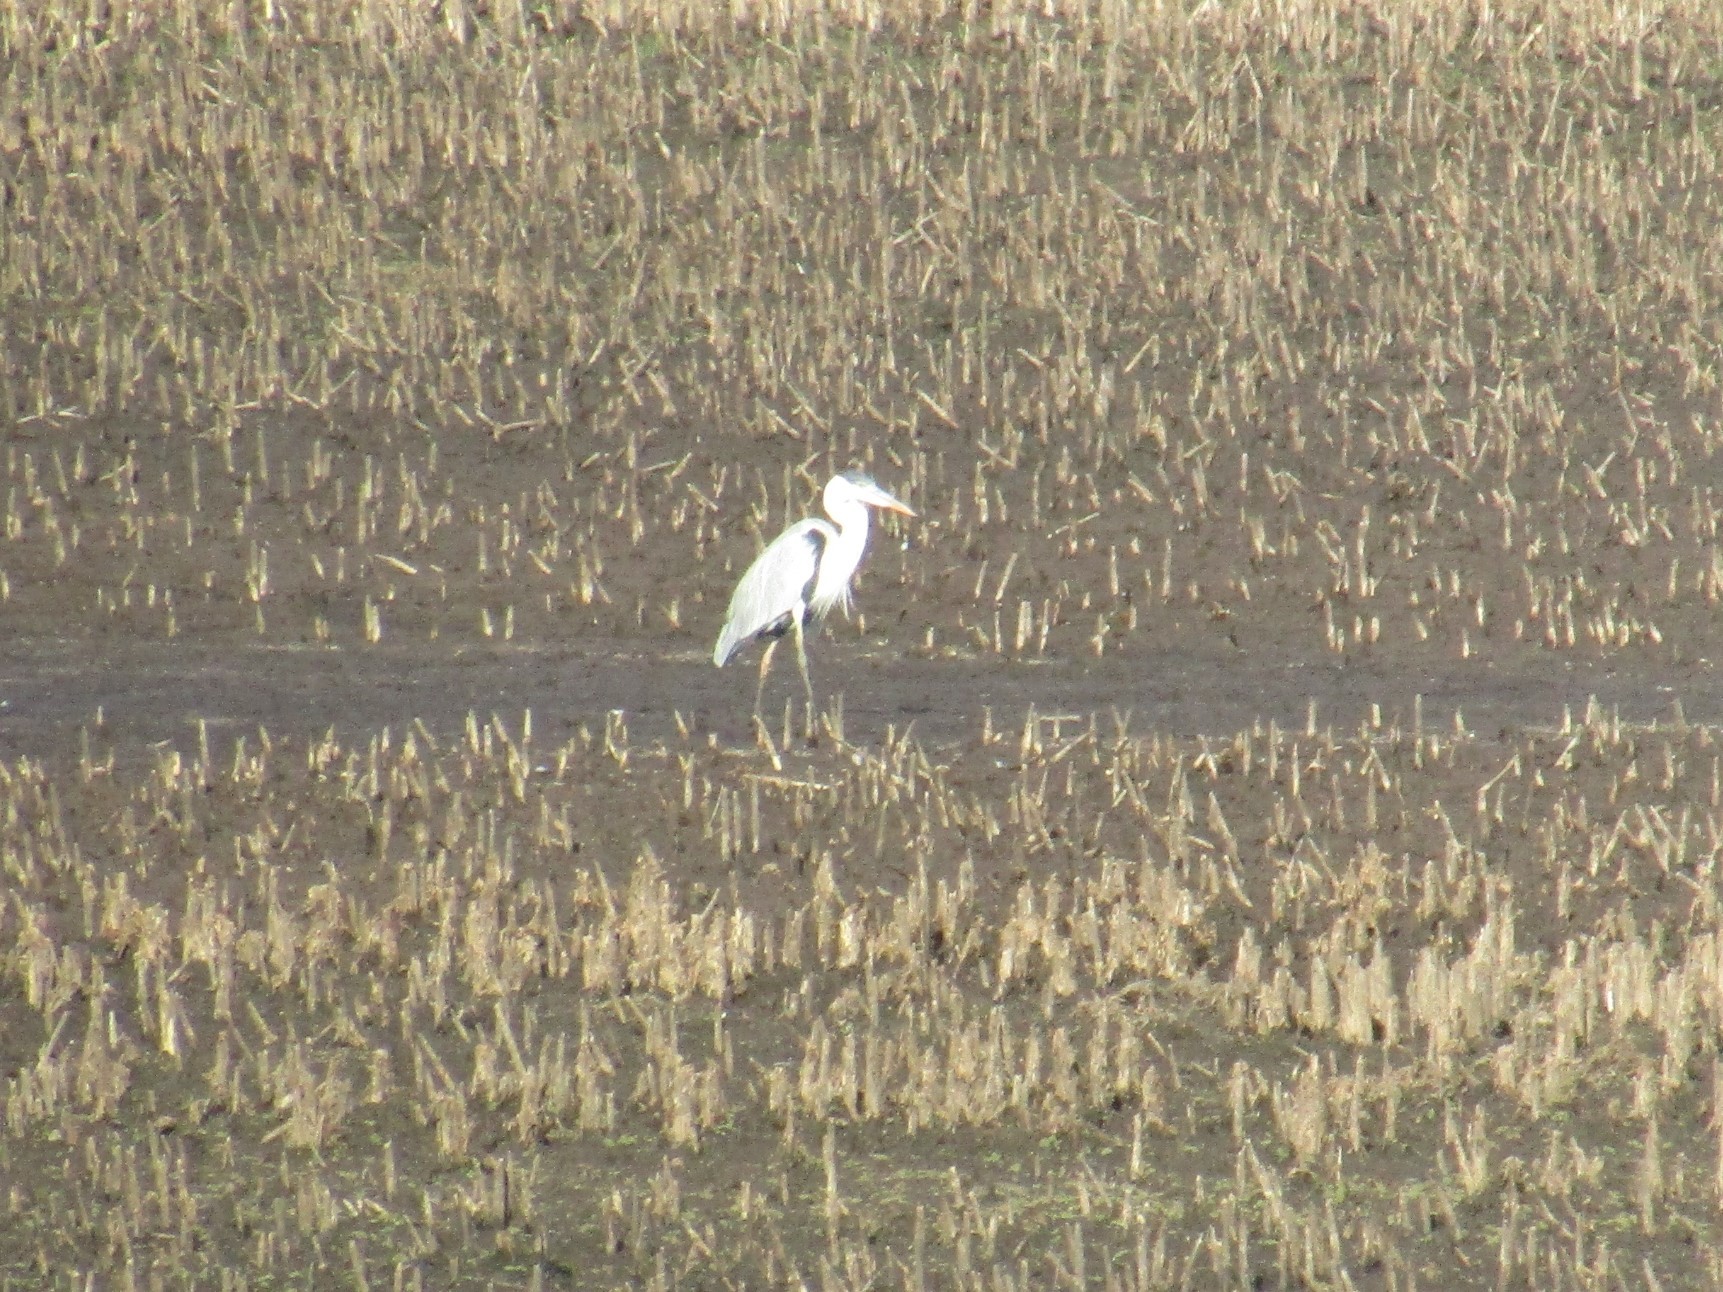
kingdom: Animalia
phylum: Chordata
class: Aves
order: Pelecaniformes
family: Ardeidae
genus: Ardea
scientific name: Ardea cocoi
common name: Cocoi heron
